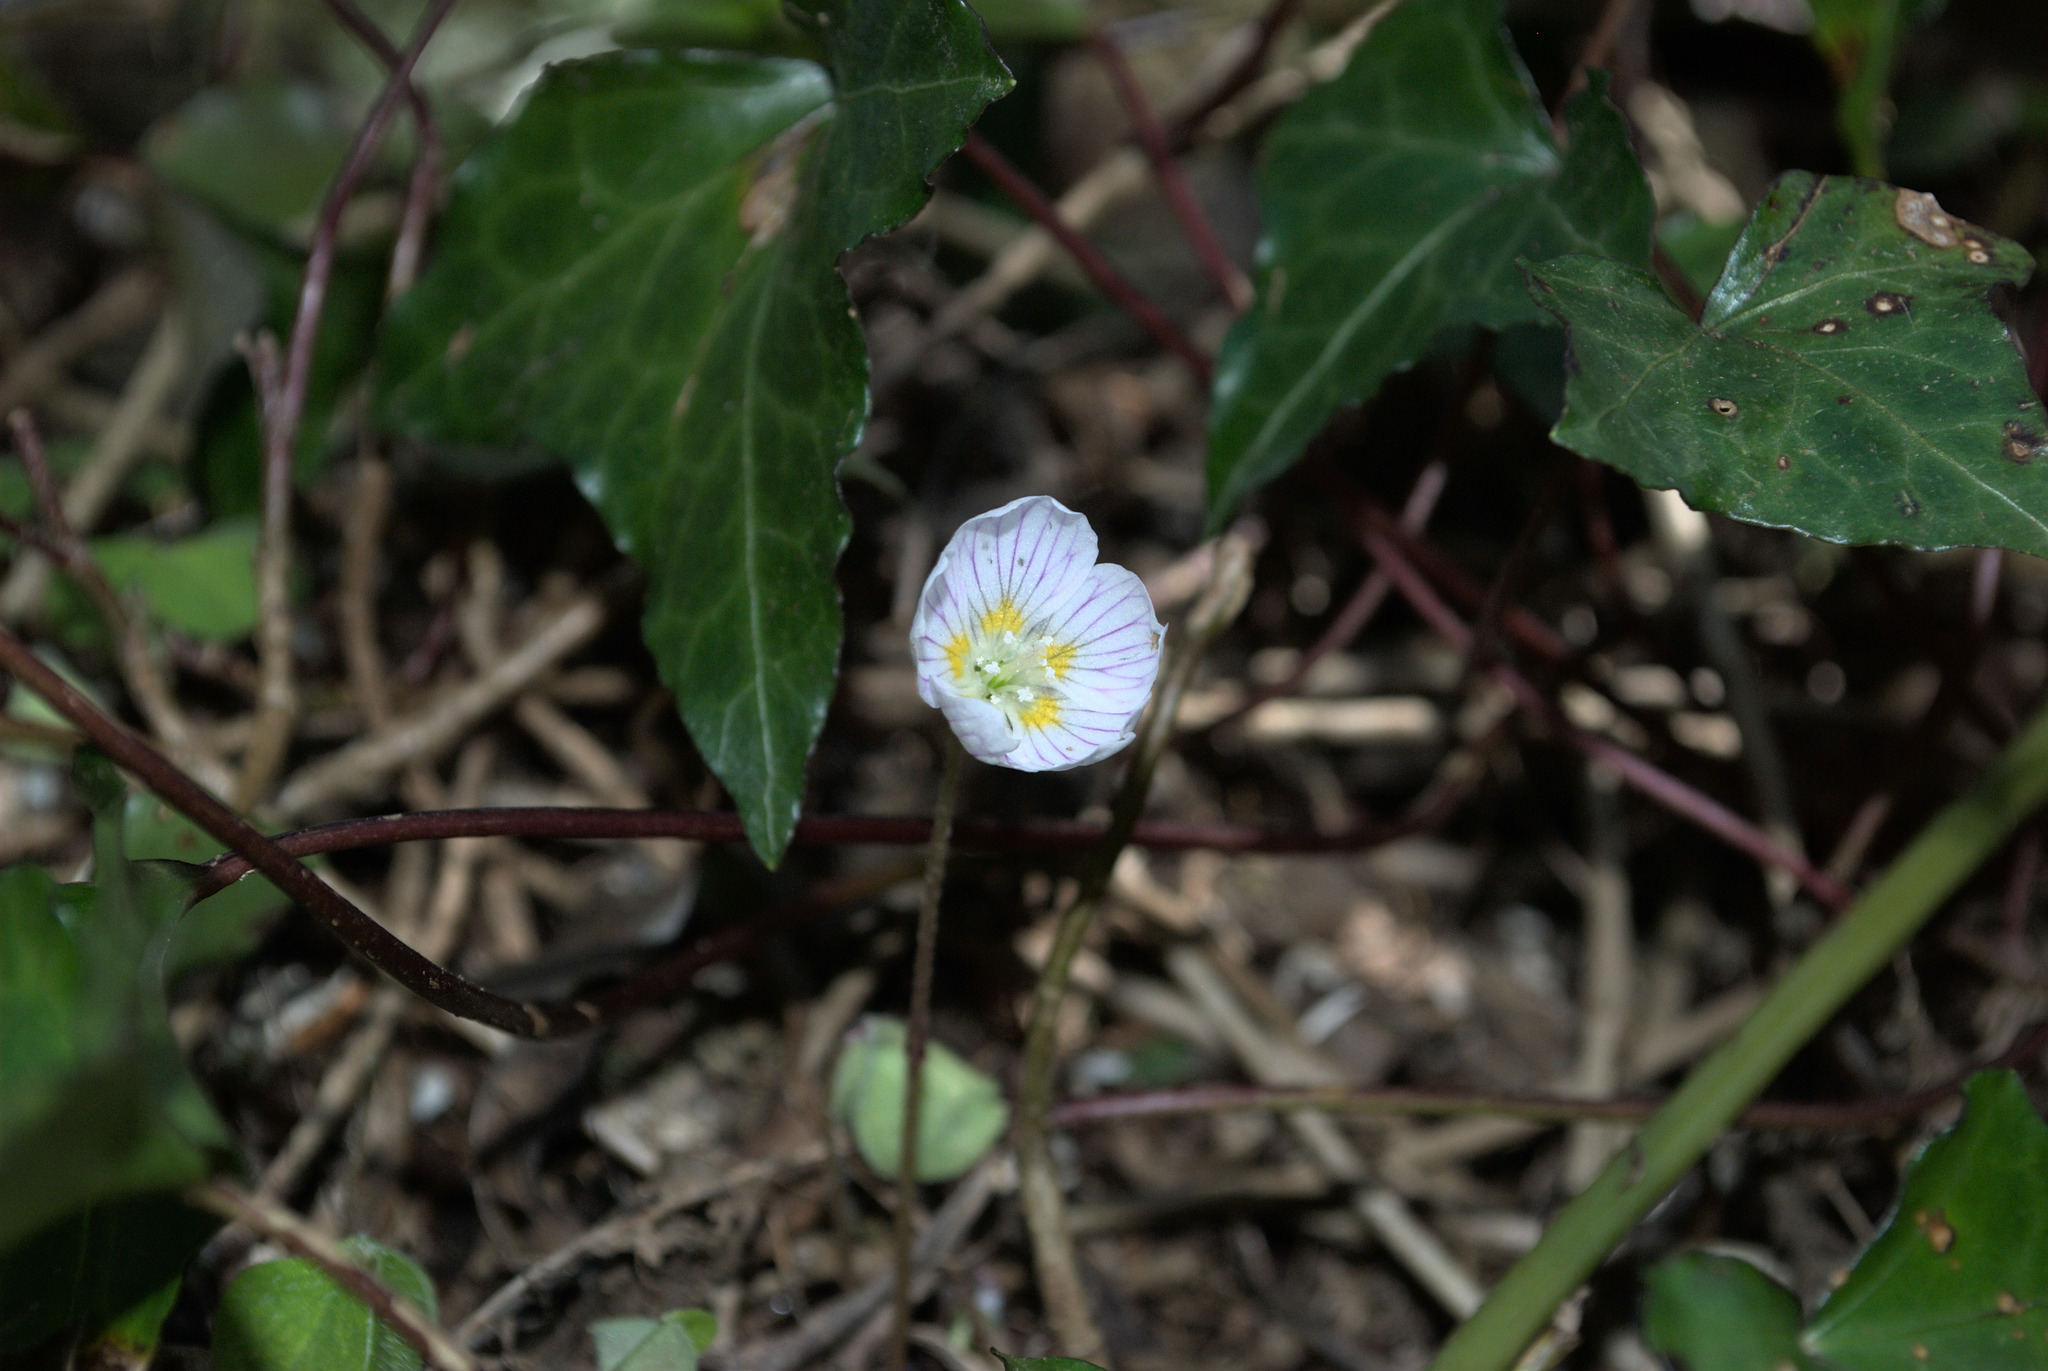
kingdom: Plantae
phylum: Tracheophyta
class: Magnoliopsida
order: Oxalidales
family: Oxalidaceae
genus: Oxalis
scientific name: Oxalis acetosella
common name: Wood-sorrel
